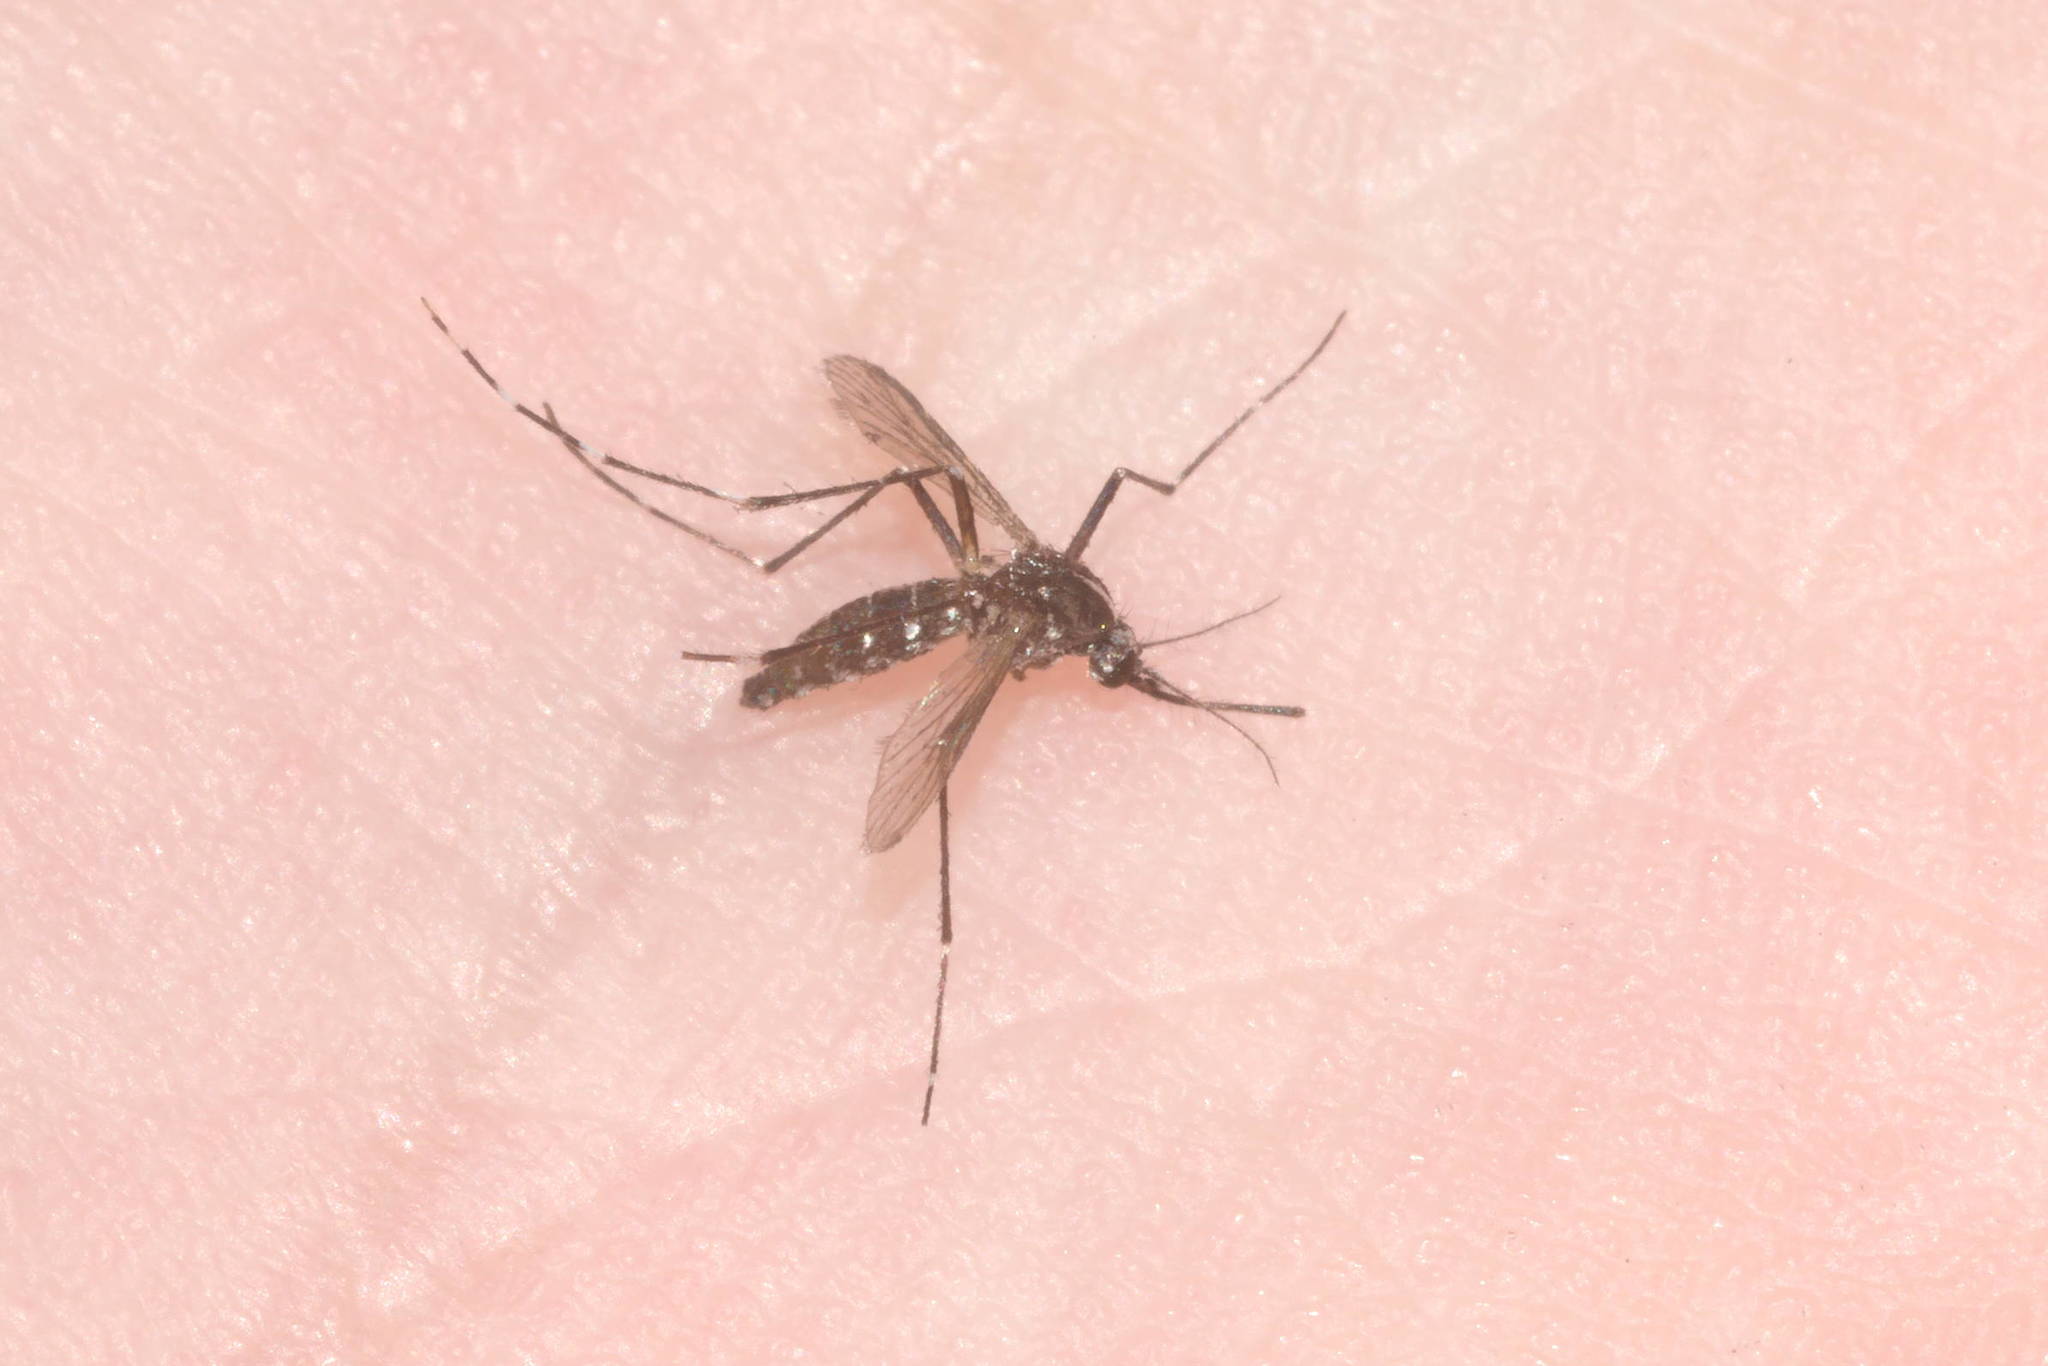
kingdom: Animalia
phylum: Arthropoda
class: Insecta
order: Diptera
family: Culicidae
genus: Aedes
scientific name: Aedes albopictus
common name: Tiger mosquito
